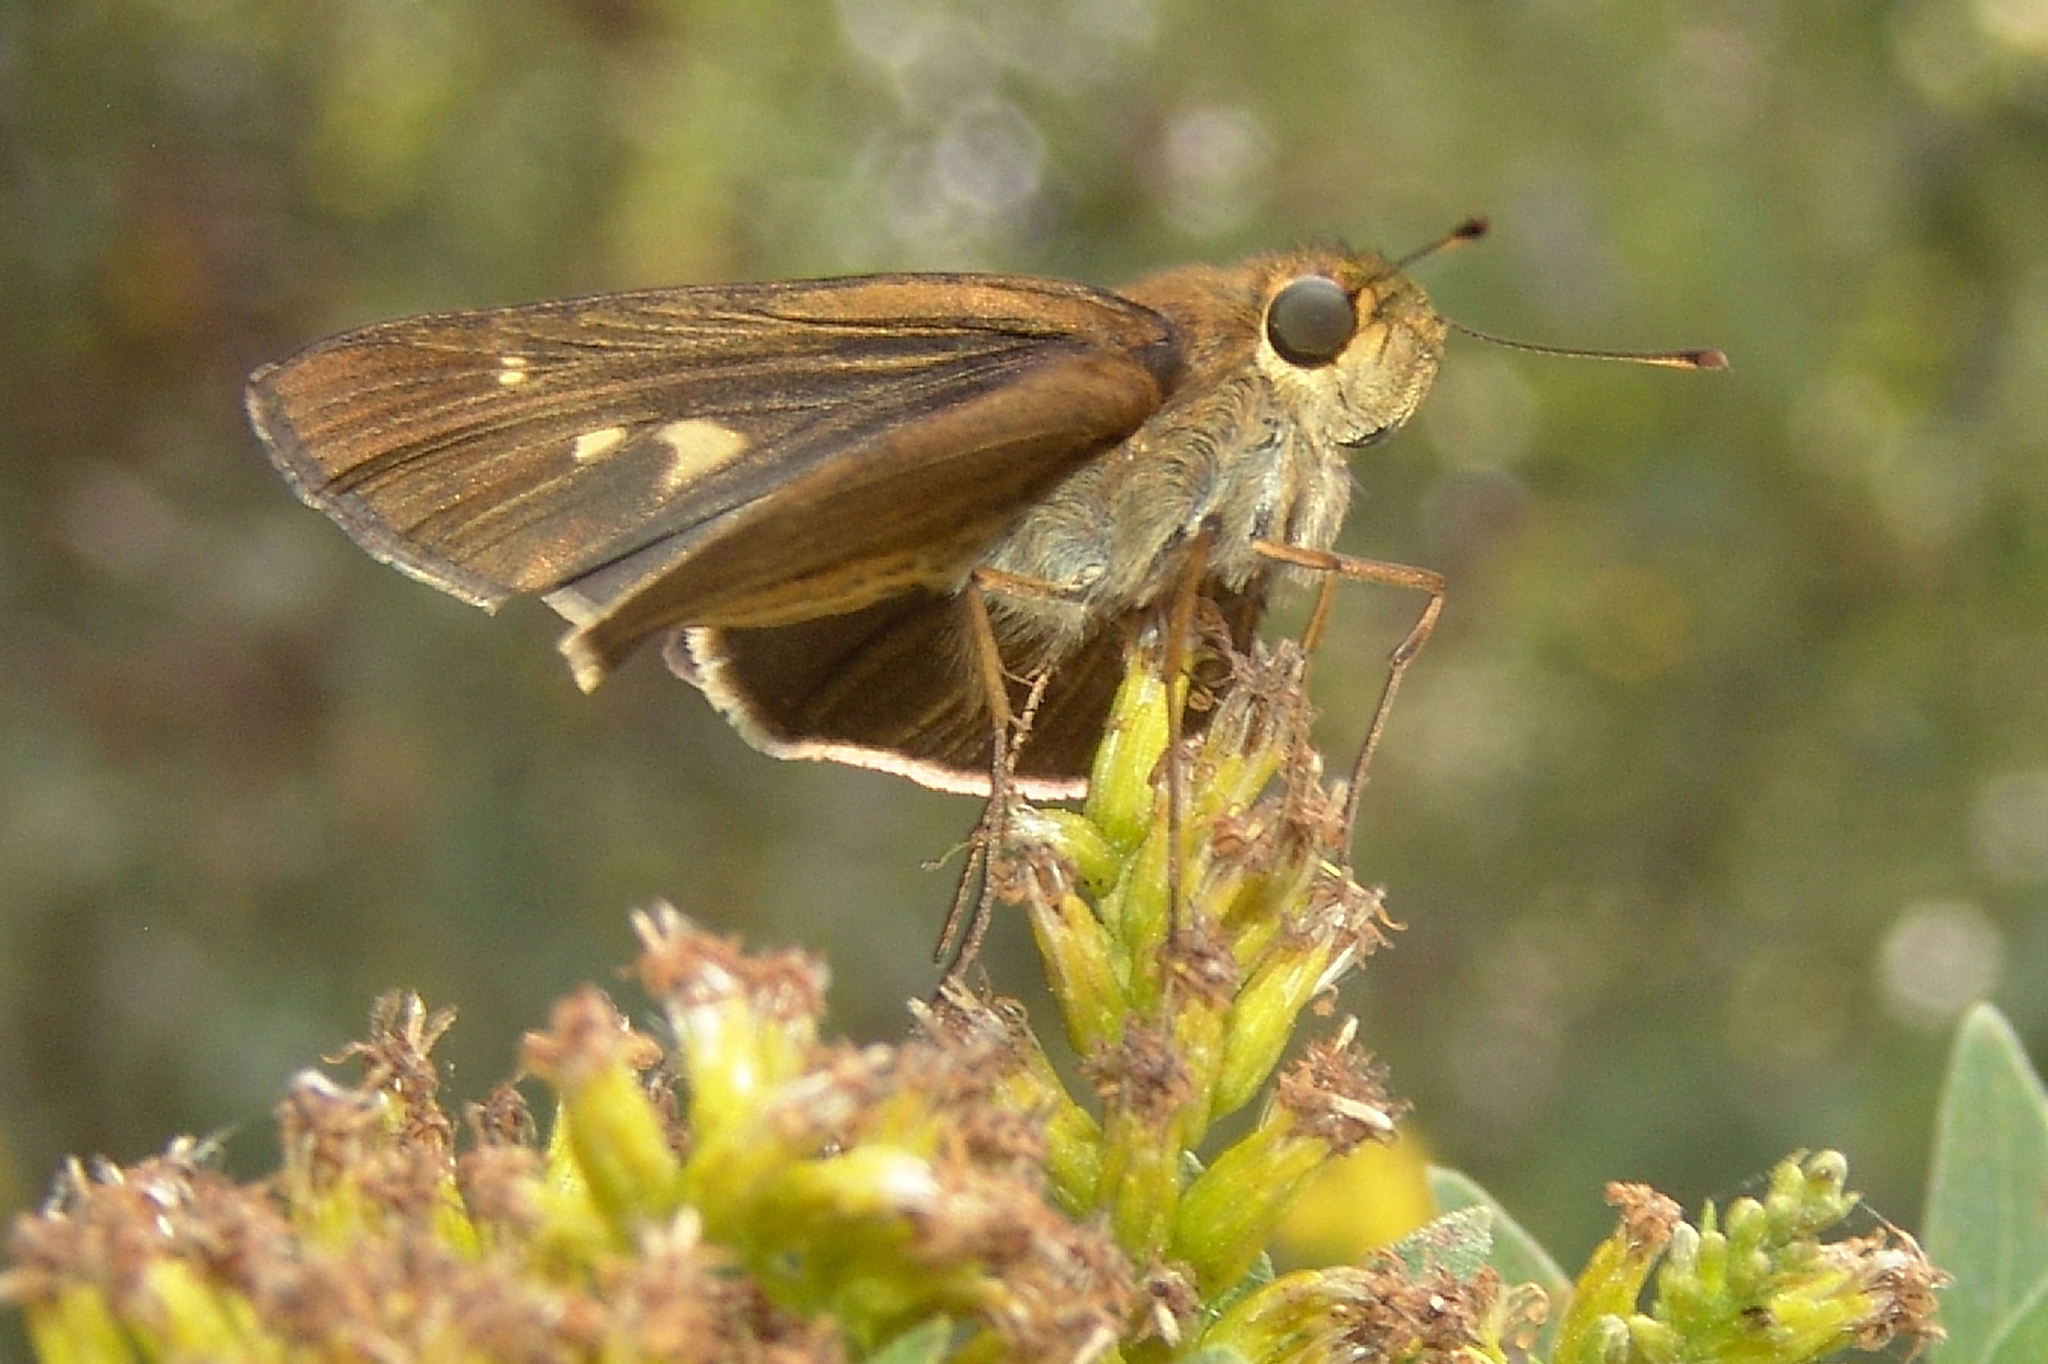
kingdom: Animalia
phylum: Arthropoda
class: Insecta
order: Lepidoptera
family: Hesperiidae
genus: Panoquina
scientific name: Panoquina ocola
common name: Ocola skipper
